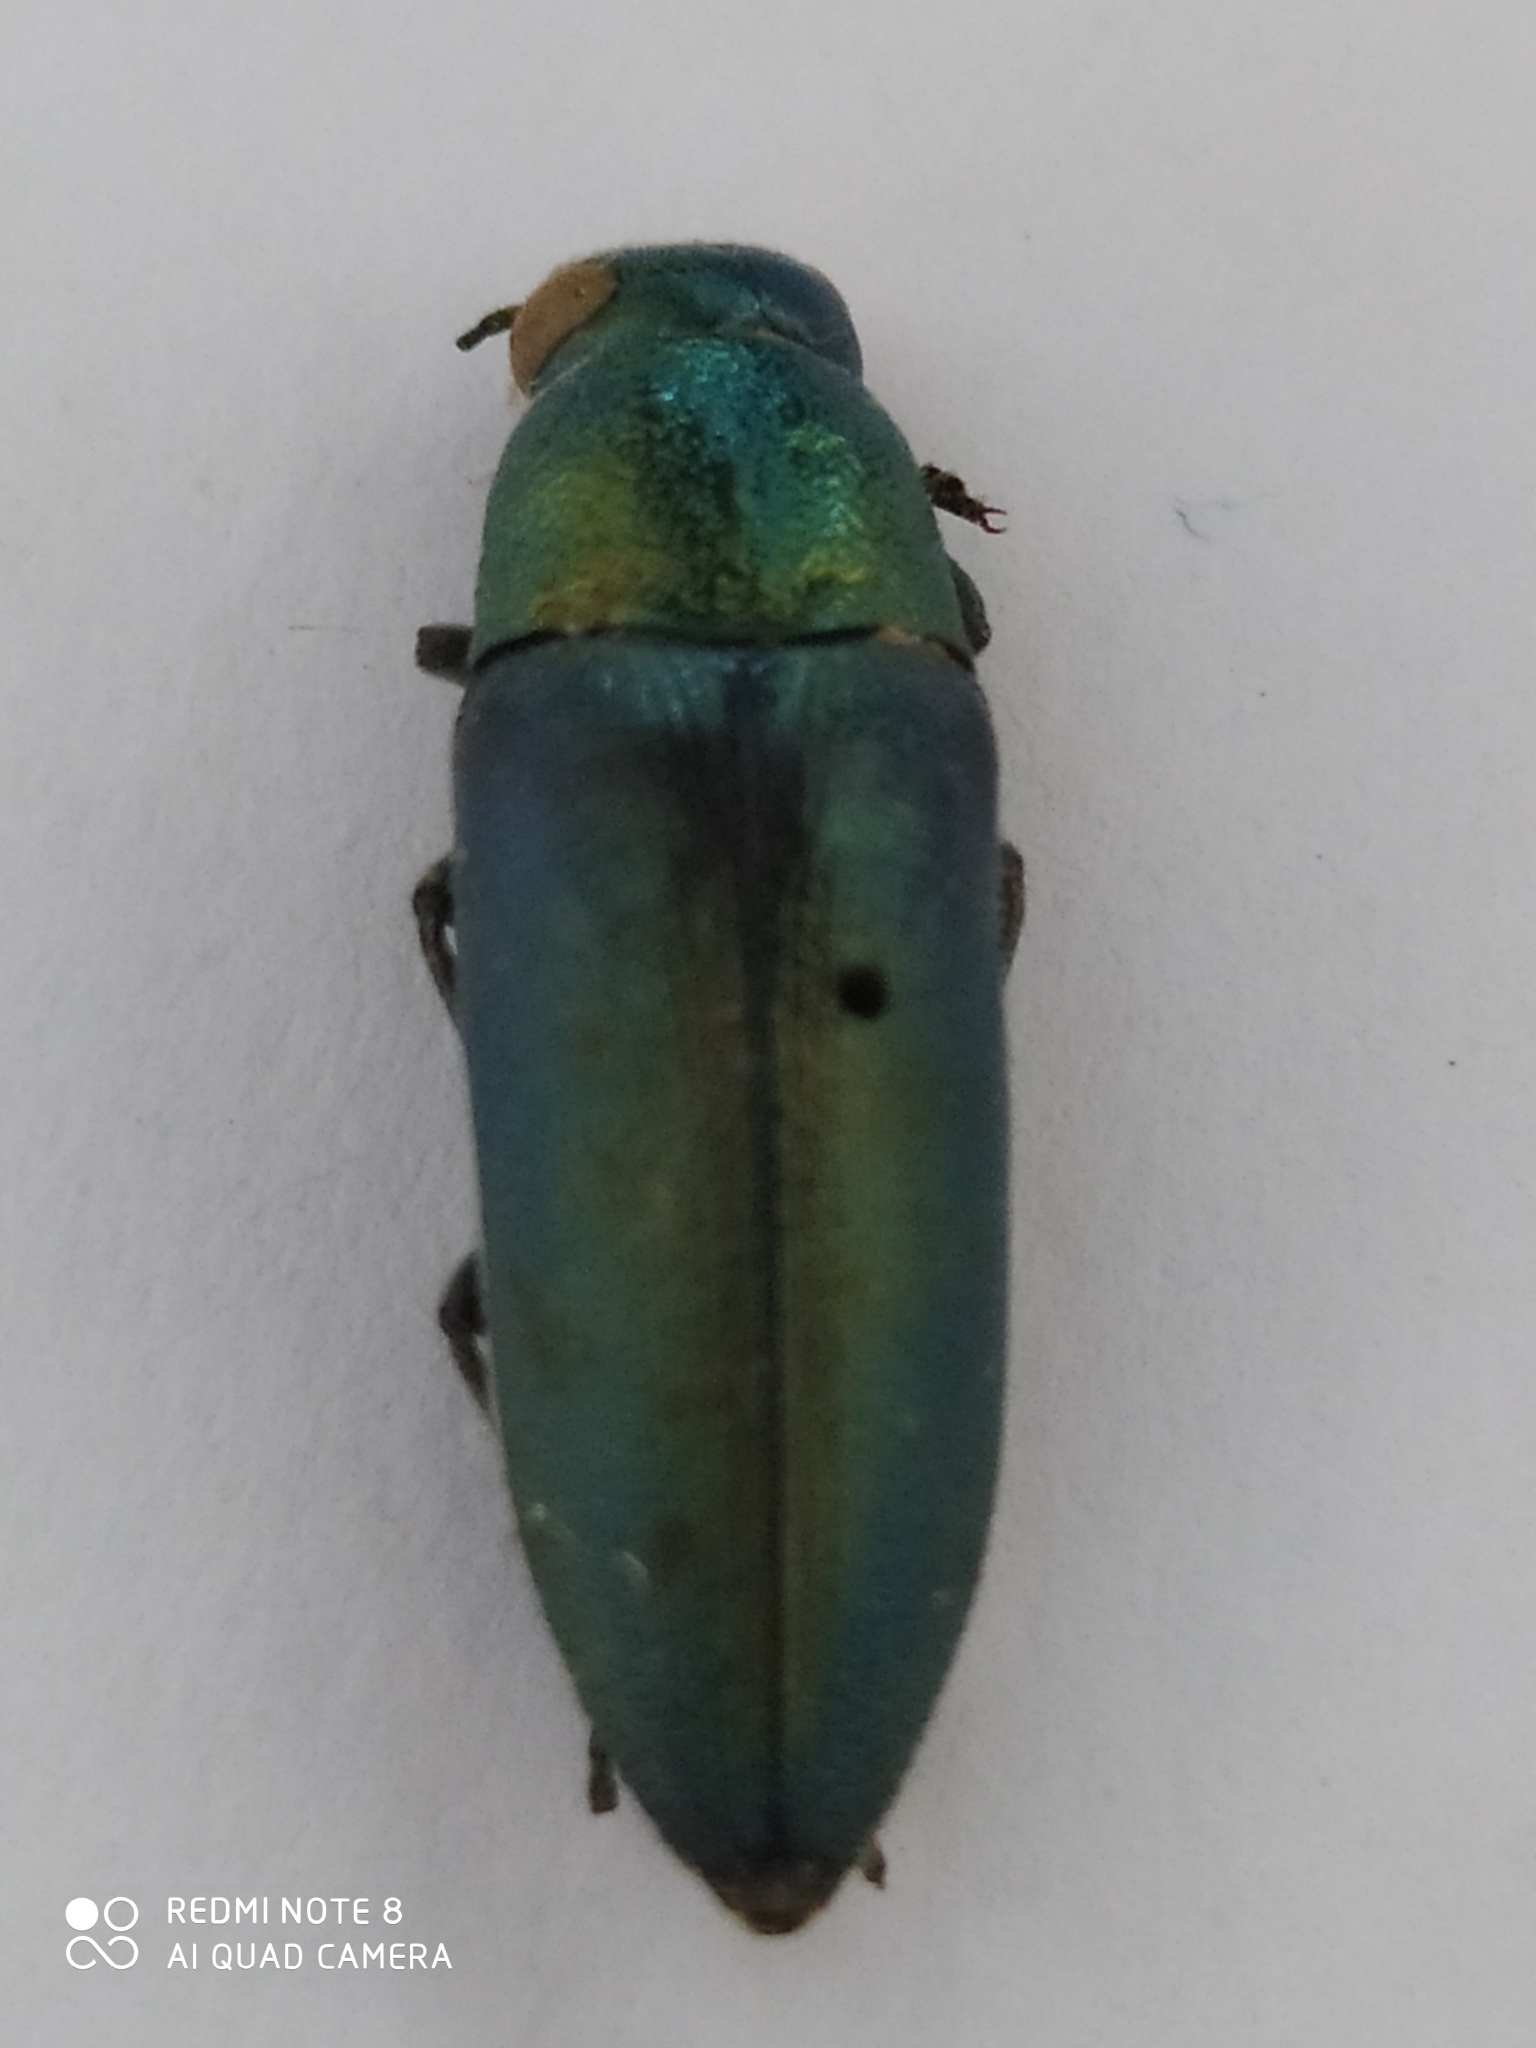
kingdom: Animalia
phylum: Arthropoda
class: Insecta
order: Coleoptera
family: Buprestidae
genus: Hippomelas
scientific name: Hippomelas mexicanus
